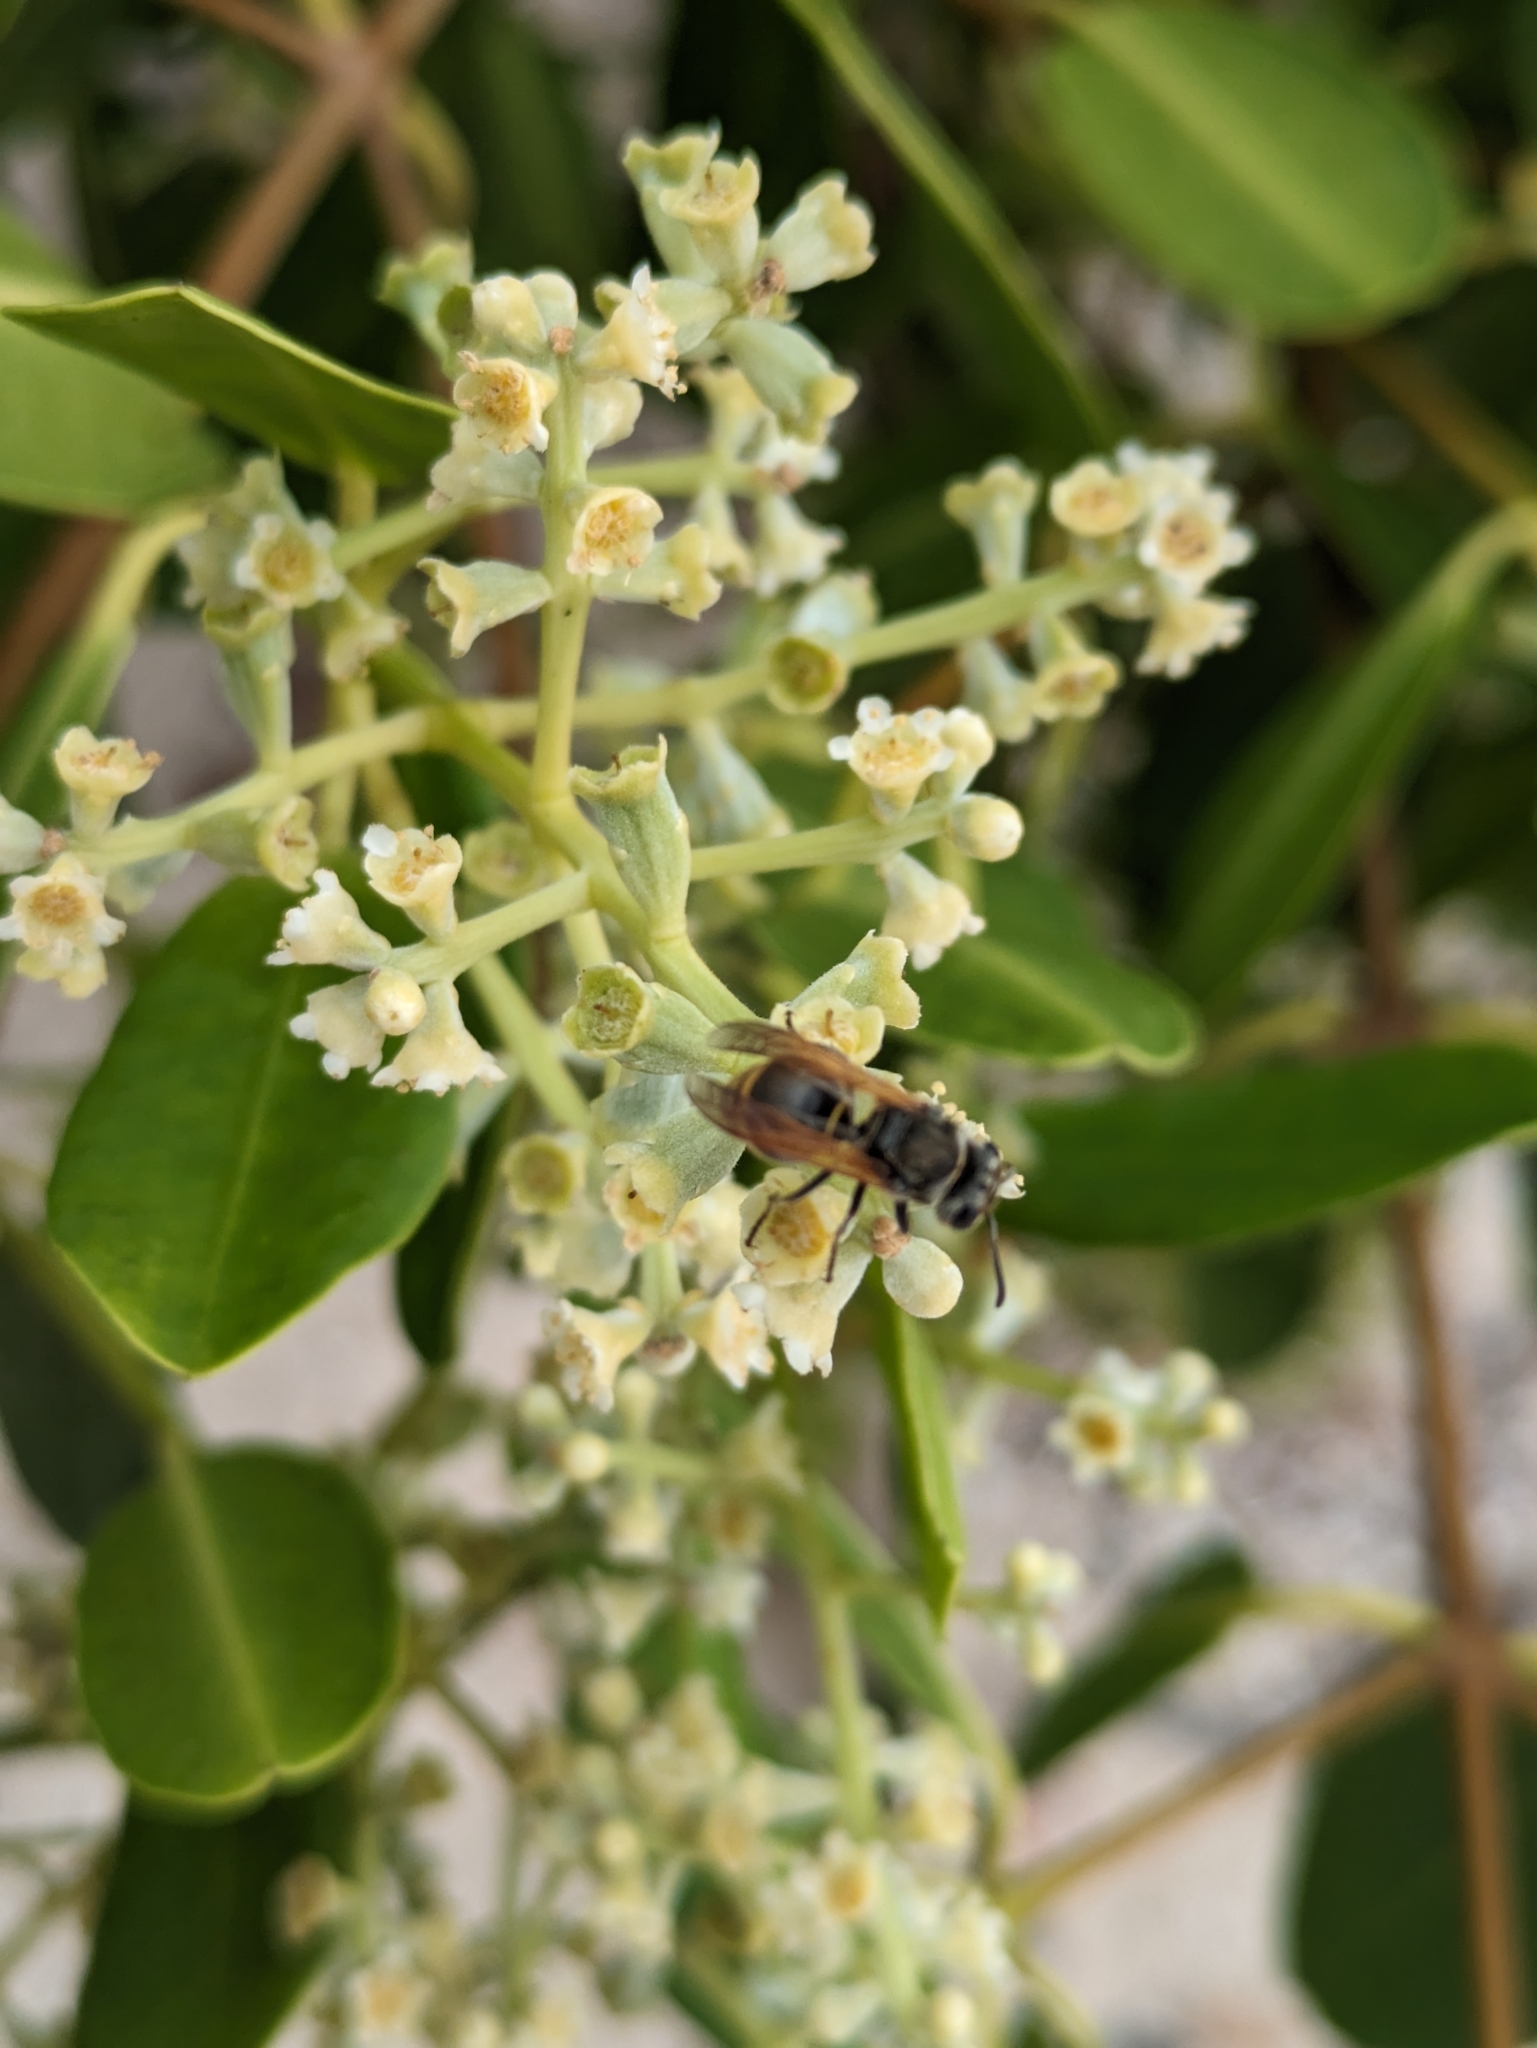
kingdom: Animalia
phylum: Arthropoda
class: Insecta
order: Hymenoptera
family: Vespidae
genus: Brachygastra
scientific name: Brachygastra lecheguana
